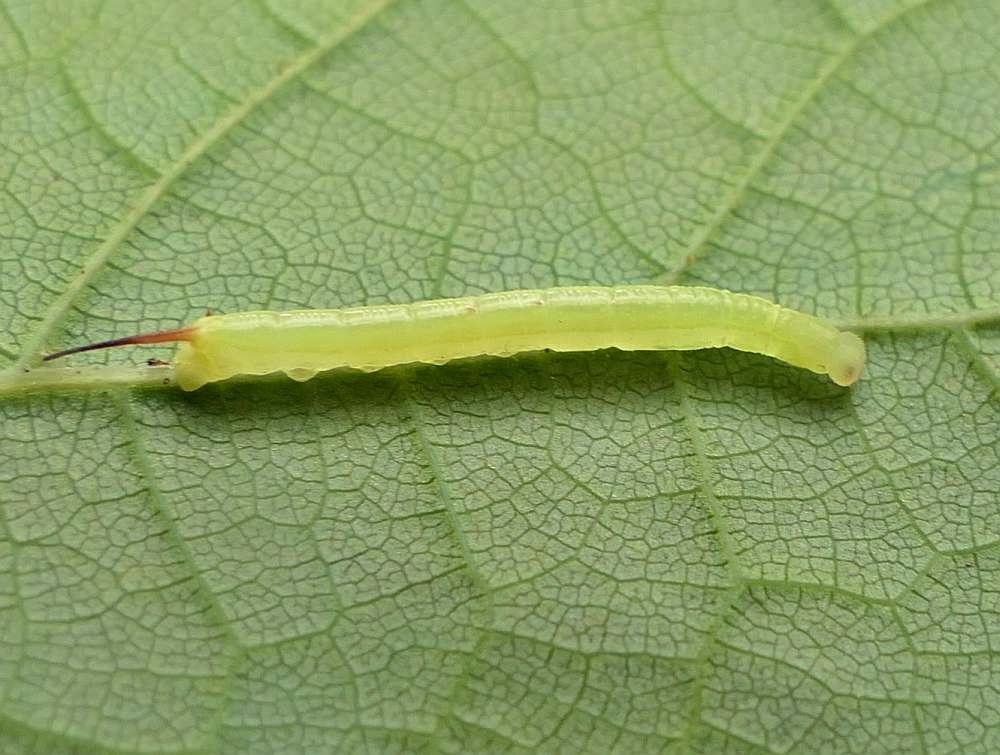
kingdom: Animalia
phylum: Arthropoda
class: Insecta
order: Lepidoptera
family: Sphingidae
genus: Darapsa
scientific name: Darapsa myron
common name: Hog sphinx
